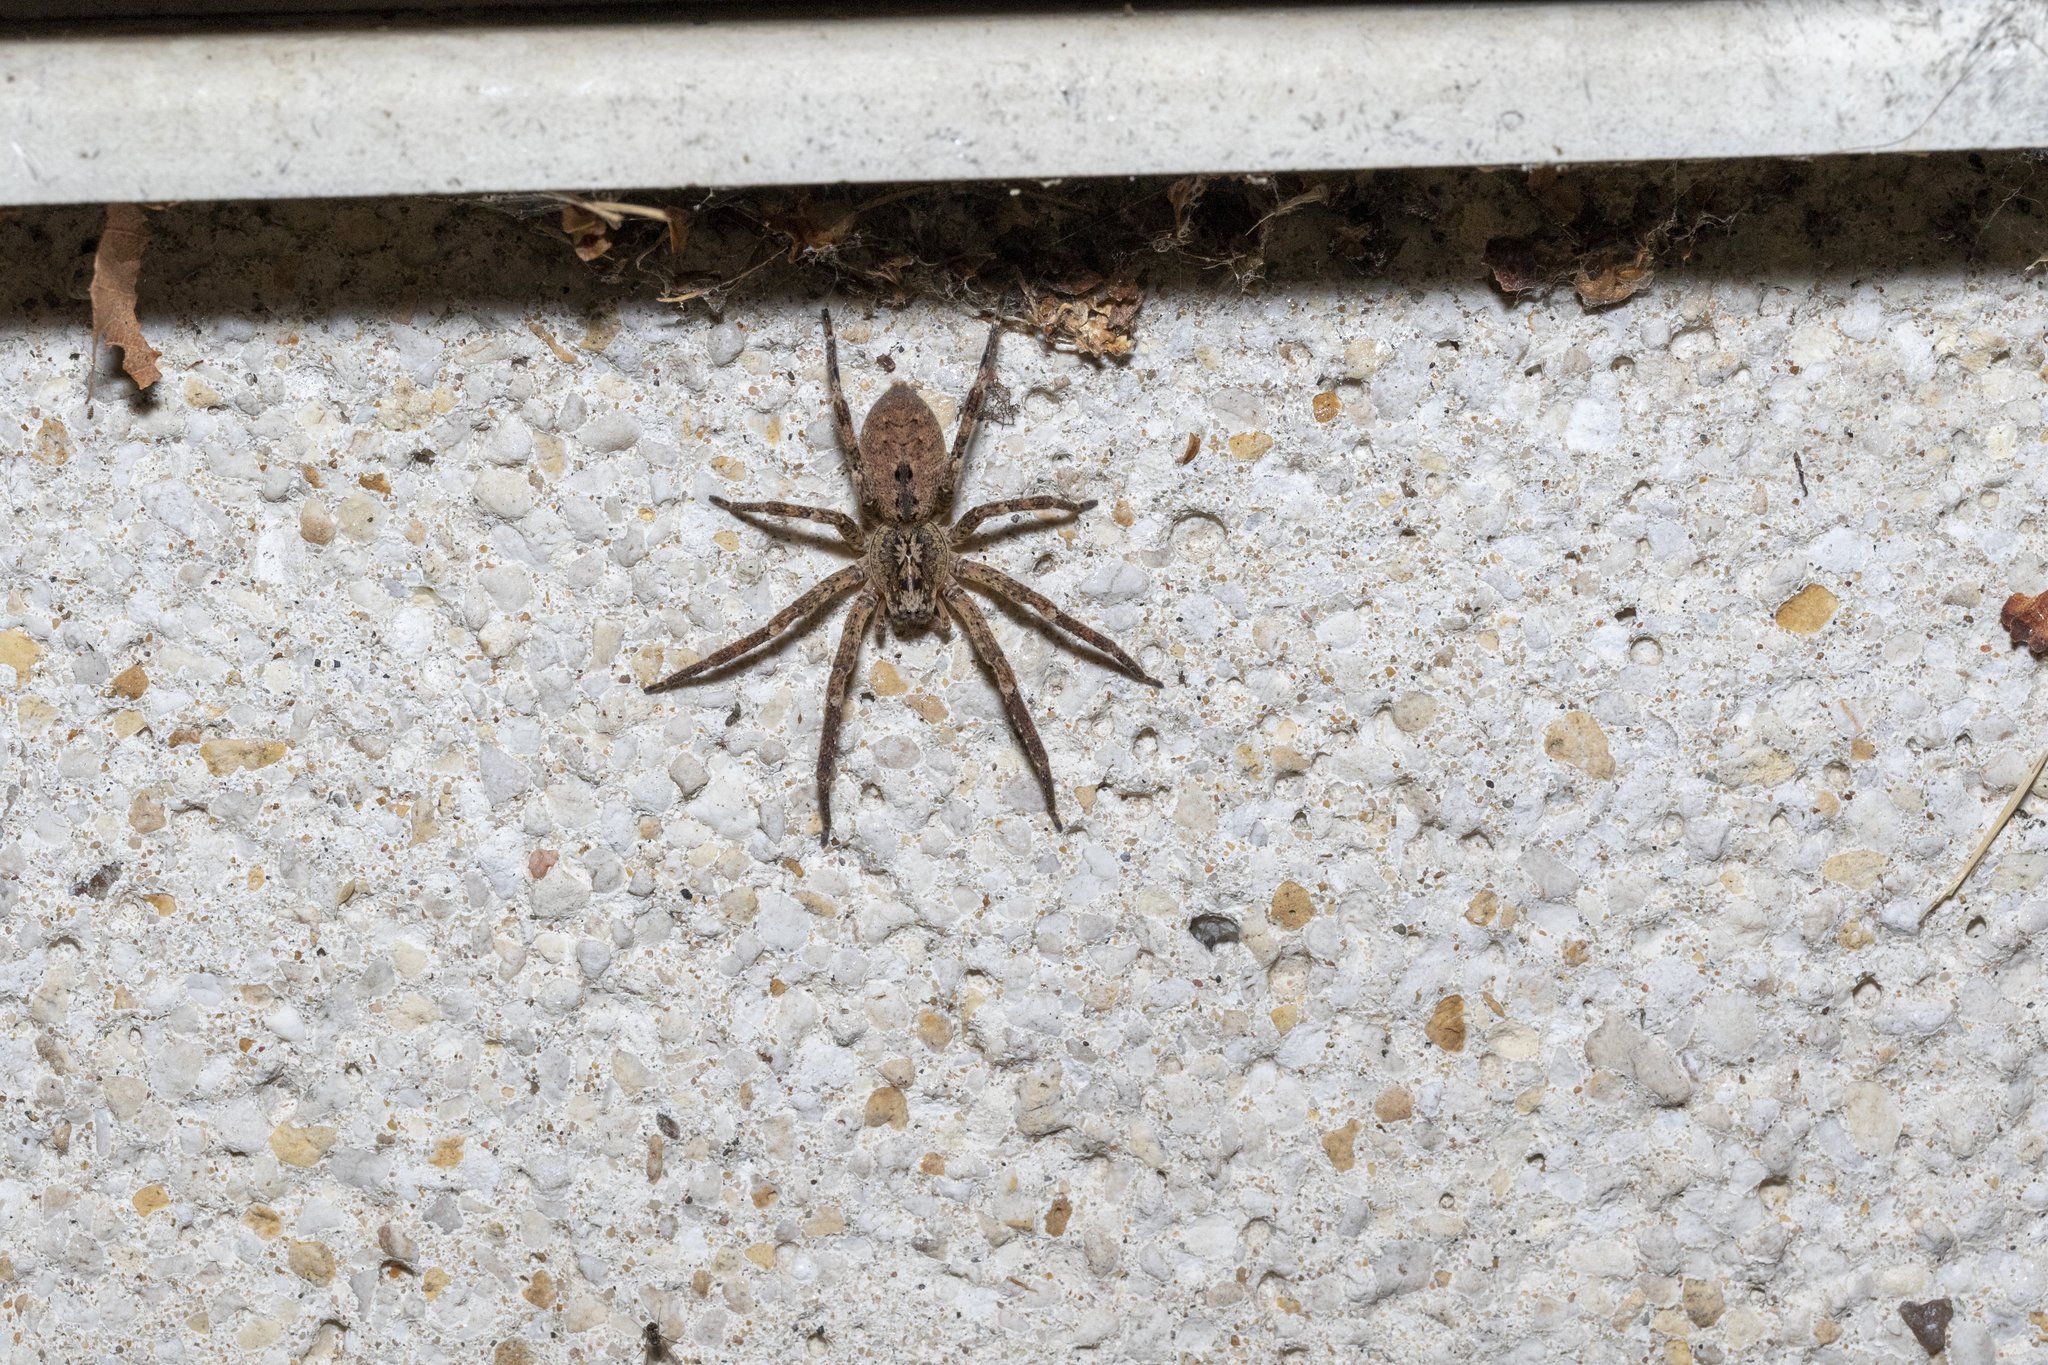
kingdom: Animalia
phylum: Arthropoda
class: Arachnida
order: Araneae
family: Zoropsidae
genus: Zoropsis
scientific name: Zoropsis spinimana
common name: Zoropsid spider
